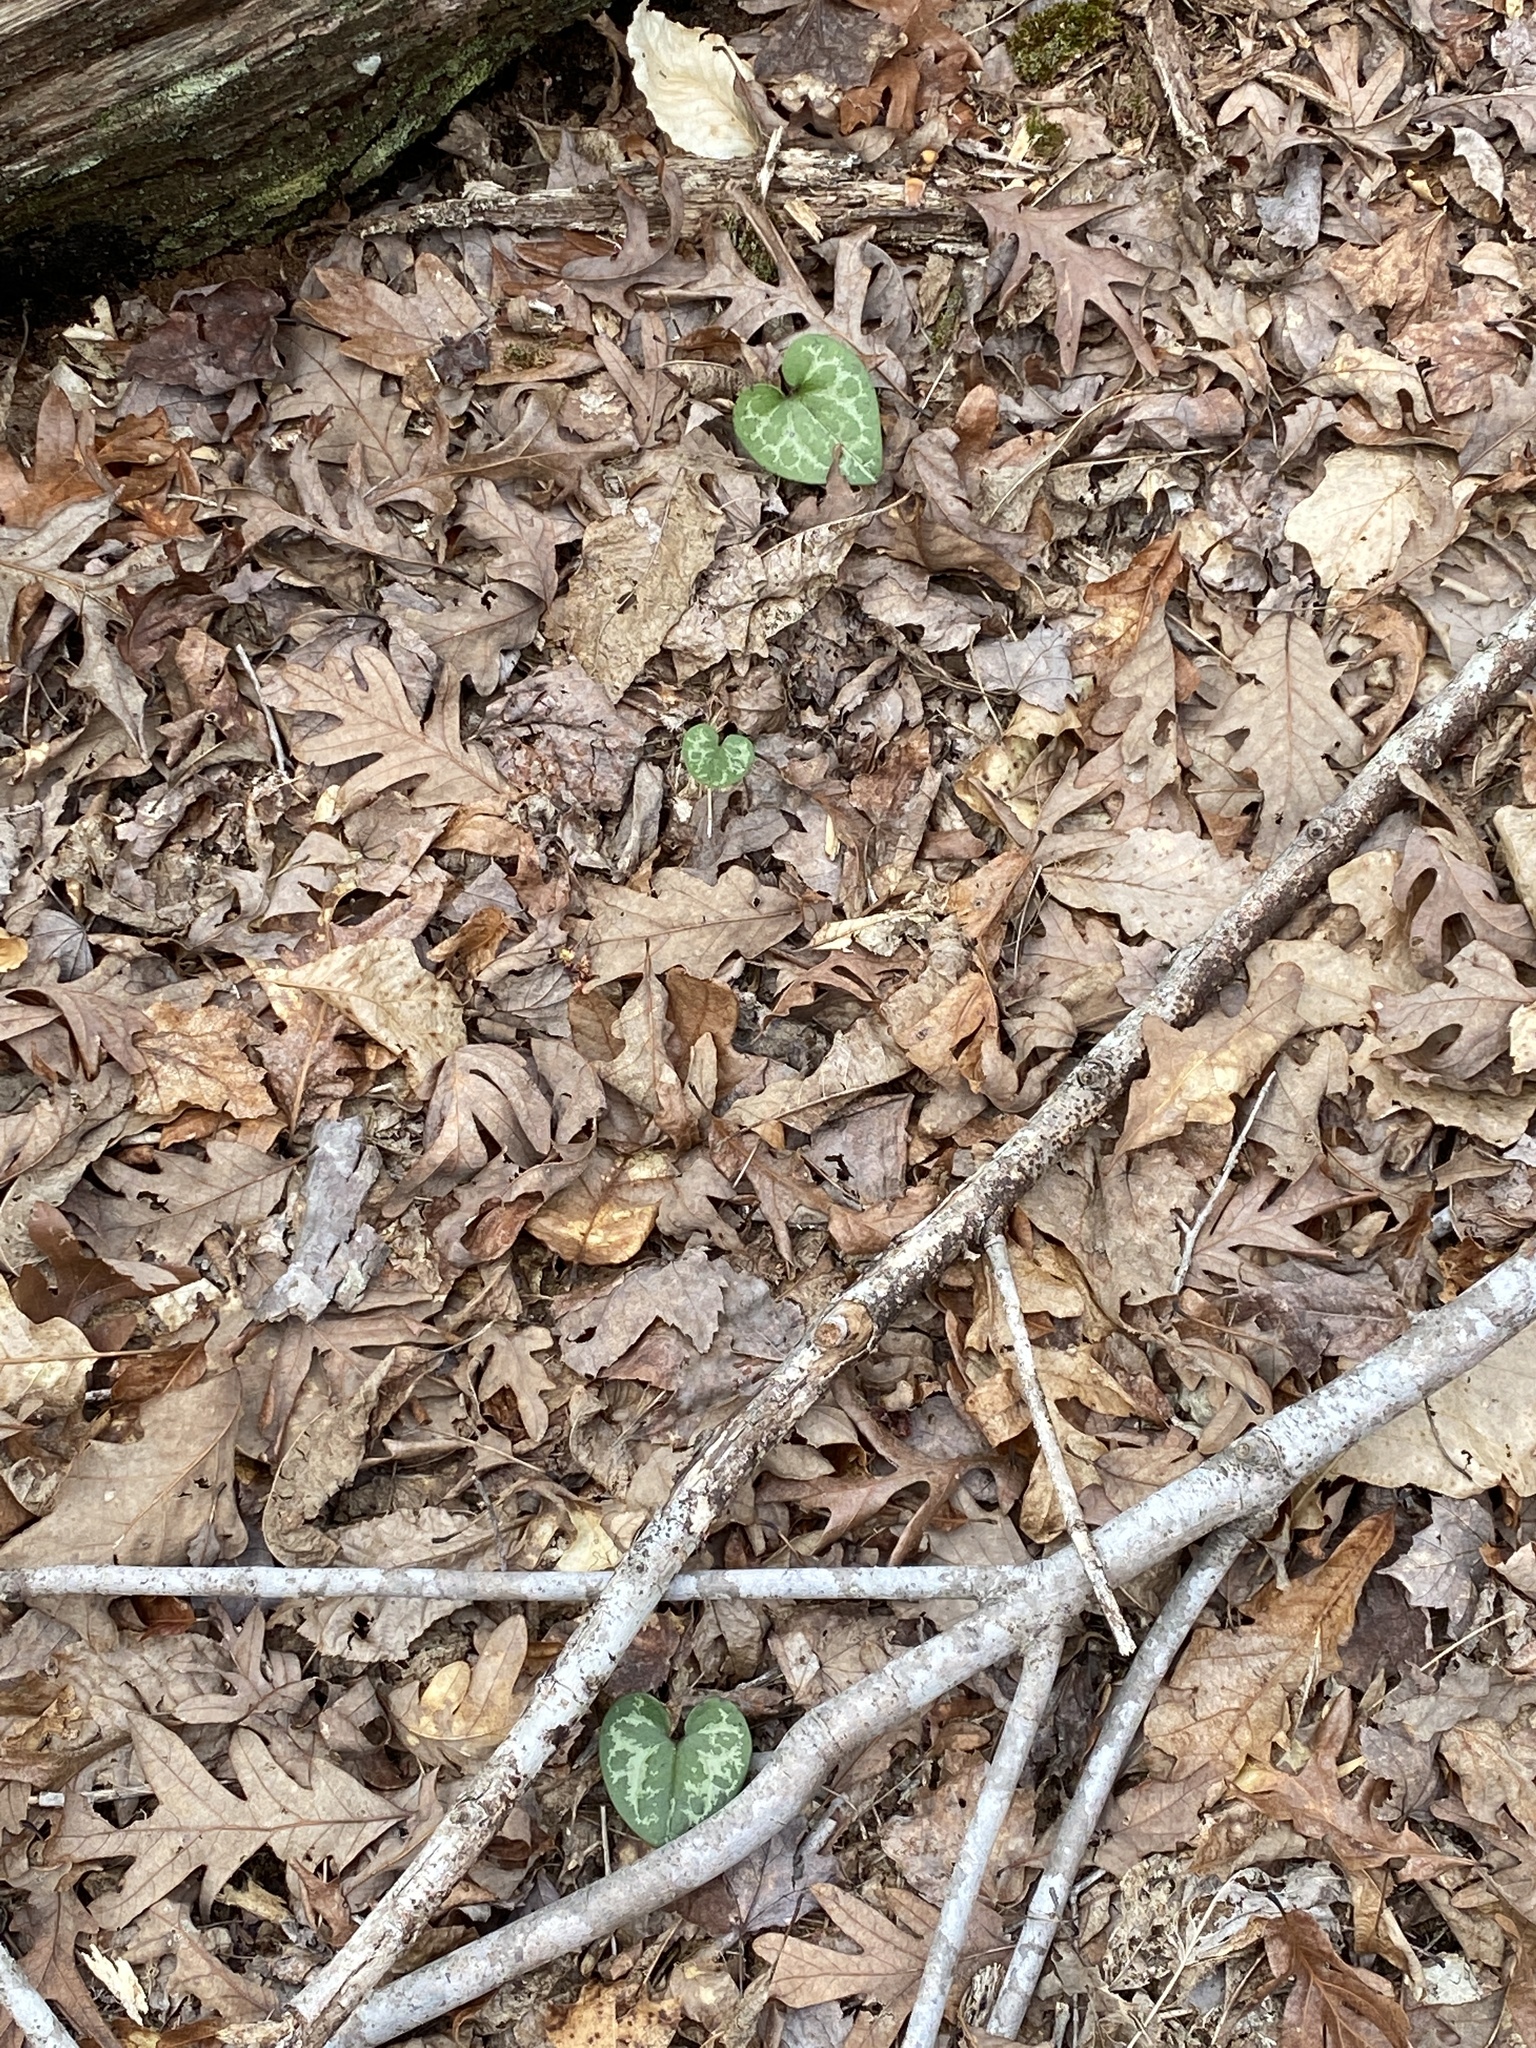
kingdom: Plantae
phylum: Tracheophyta
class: Magnoliopsida
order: Piperales
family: Aristolochiaceae
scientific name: Aristolochiaceae
